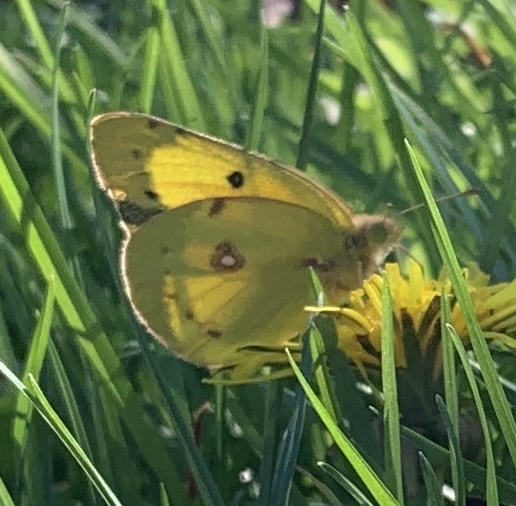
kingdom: Animalia
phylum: Arthropoda
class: Insecta
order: Lepidoptera
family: Pieridae
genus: Colias
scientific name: Colias eurytheme
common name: Alfalfa butterfly
